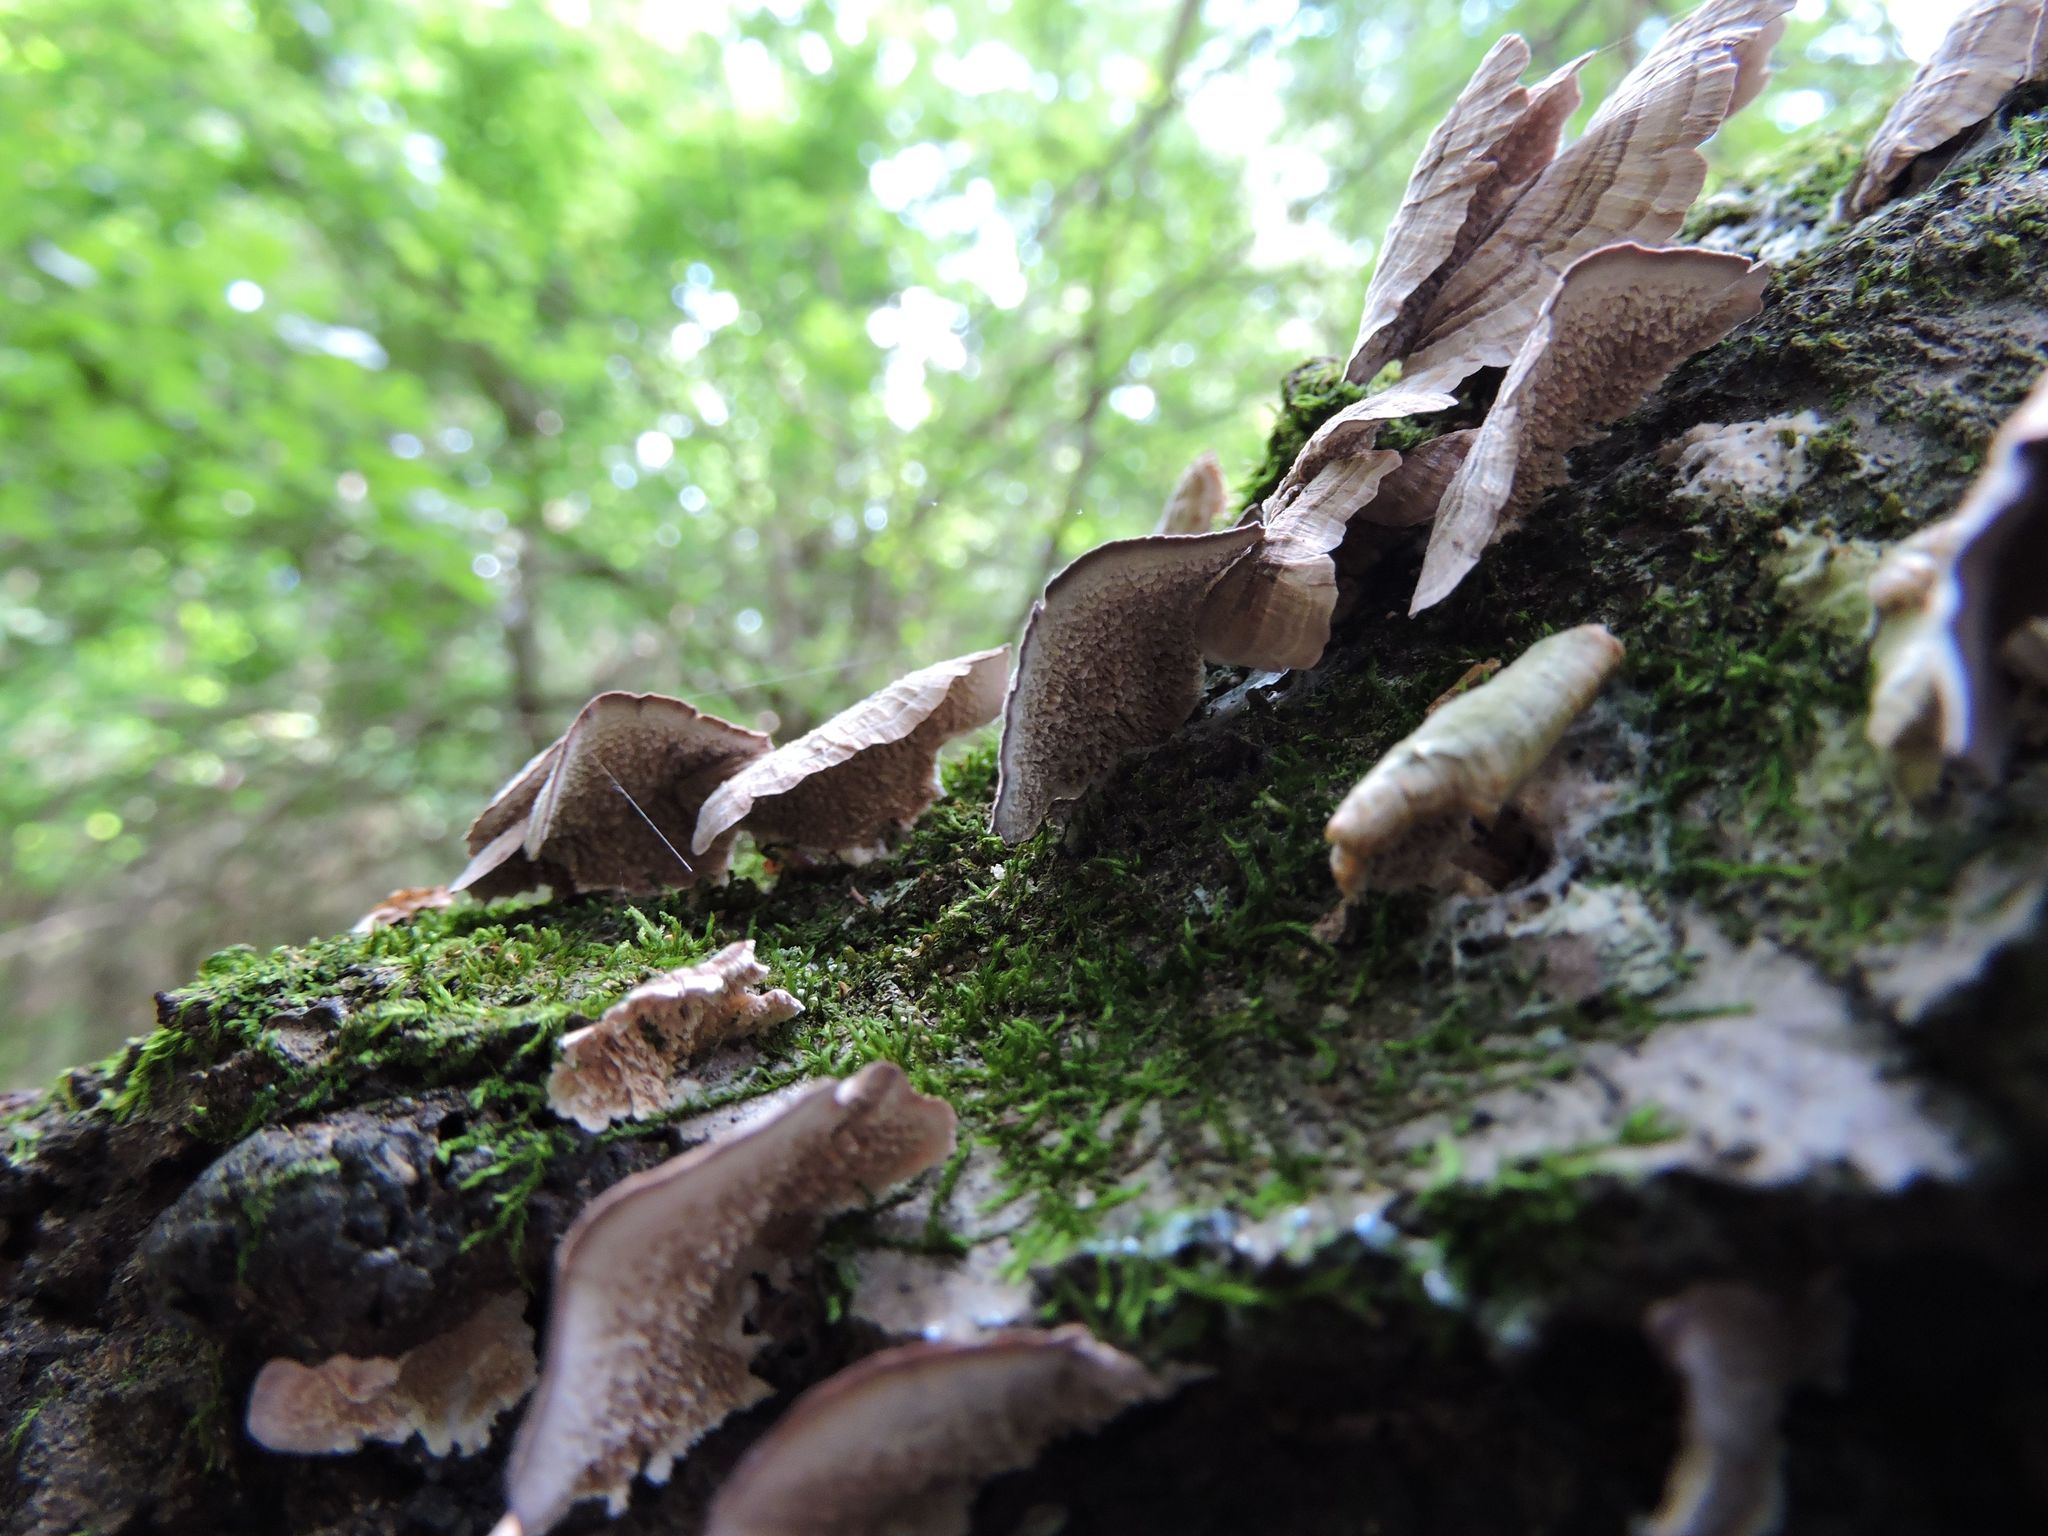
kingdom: Fungi
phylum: Basidiomycota
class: Agaricomycetes
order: Hymenochaetales
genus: Trichaptum
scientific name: Trichaptum biforme
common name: Violet-toothed polypore
